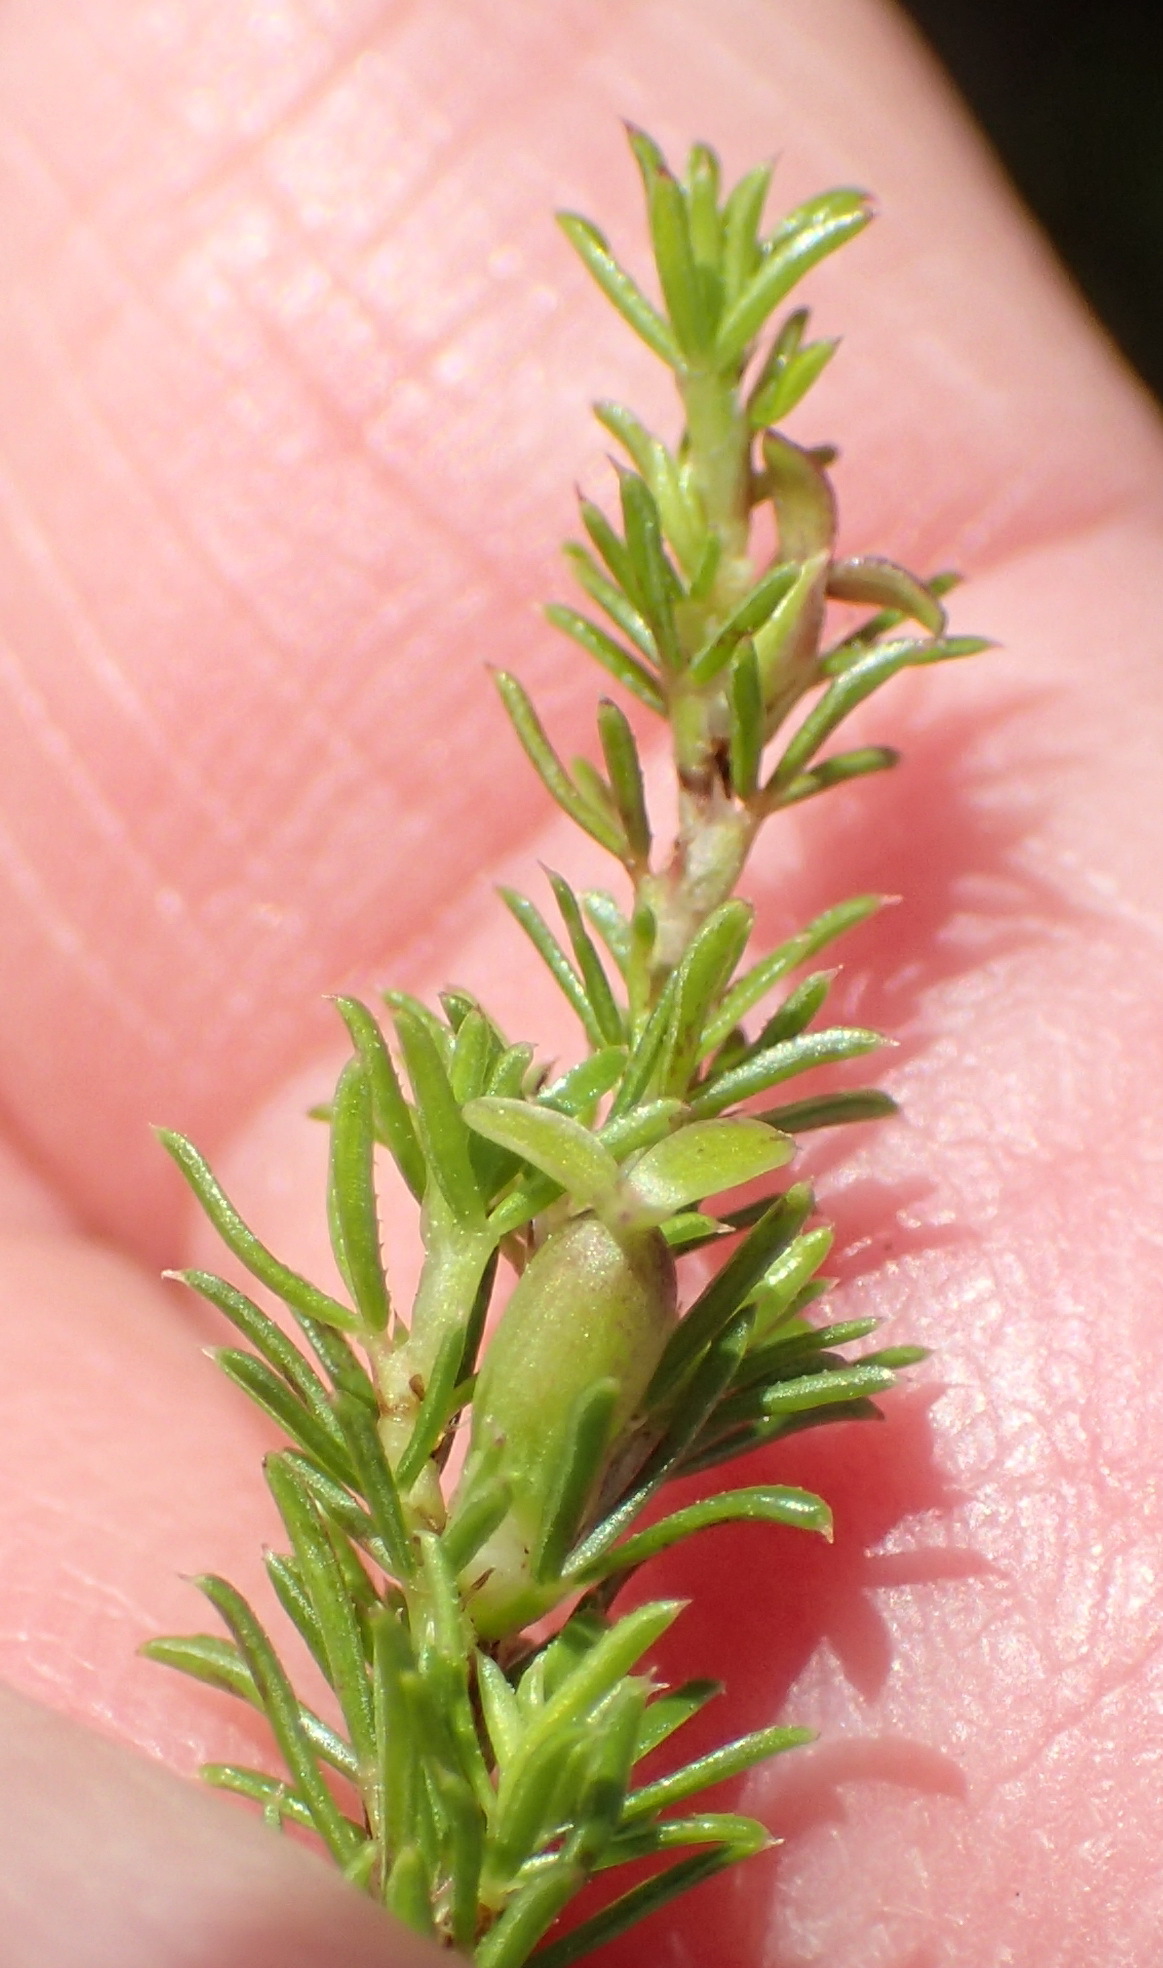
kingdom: Plantae
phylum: Tracheophyta
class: Magnoliopsida
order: Rosales
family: Rosaceae
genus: Cliffortia
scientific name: Cliffortia filifolia
